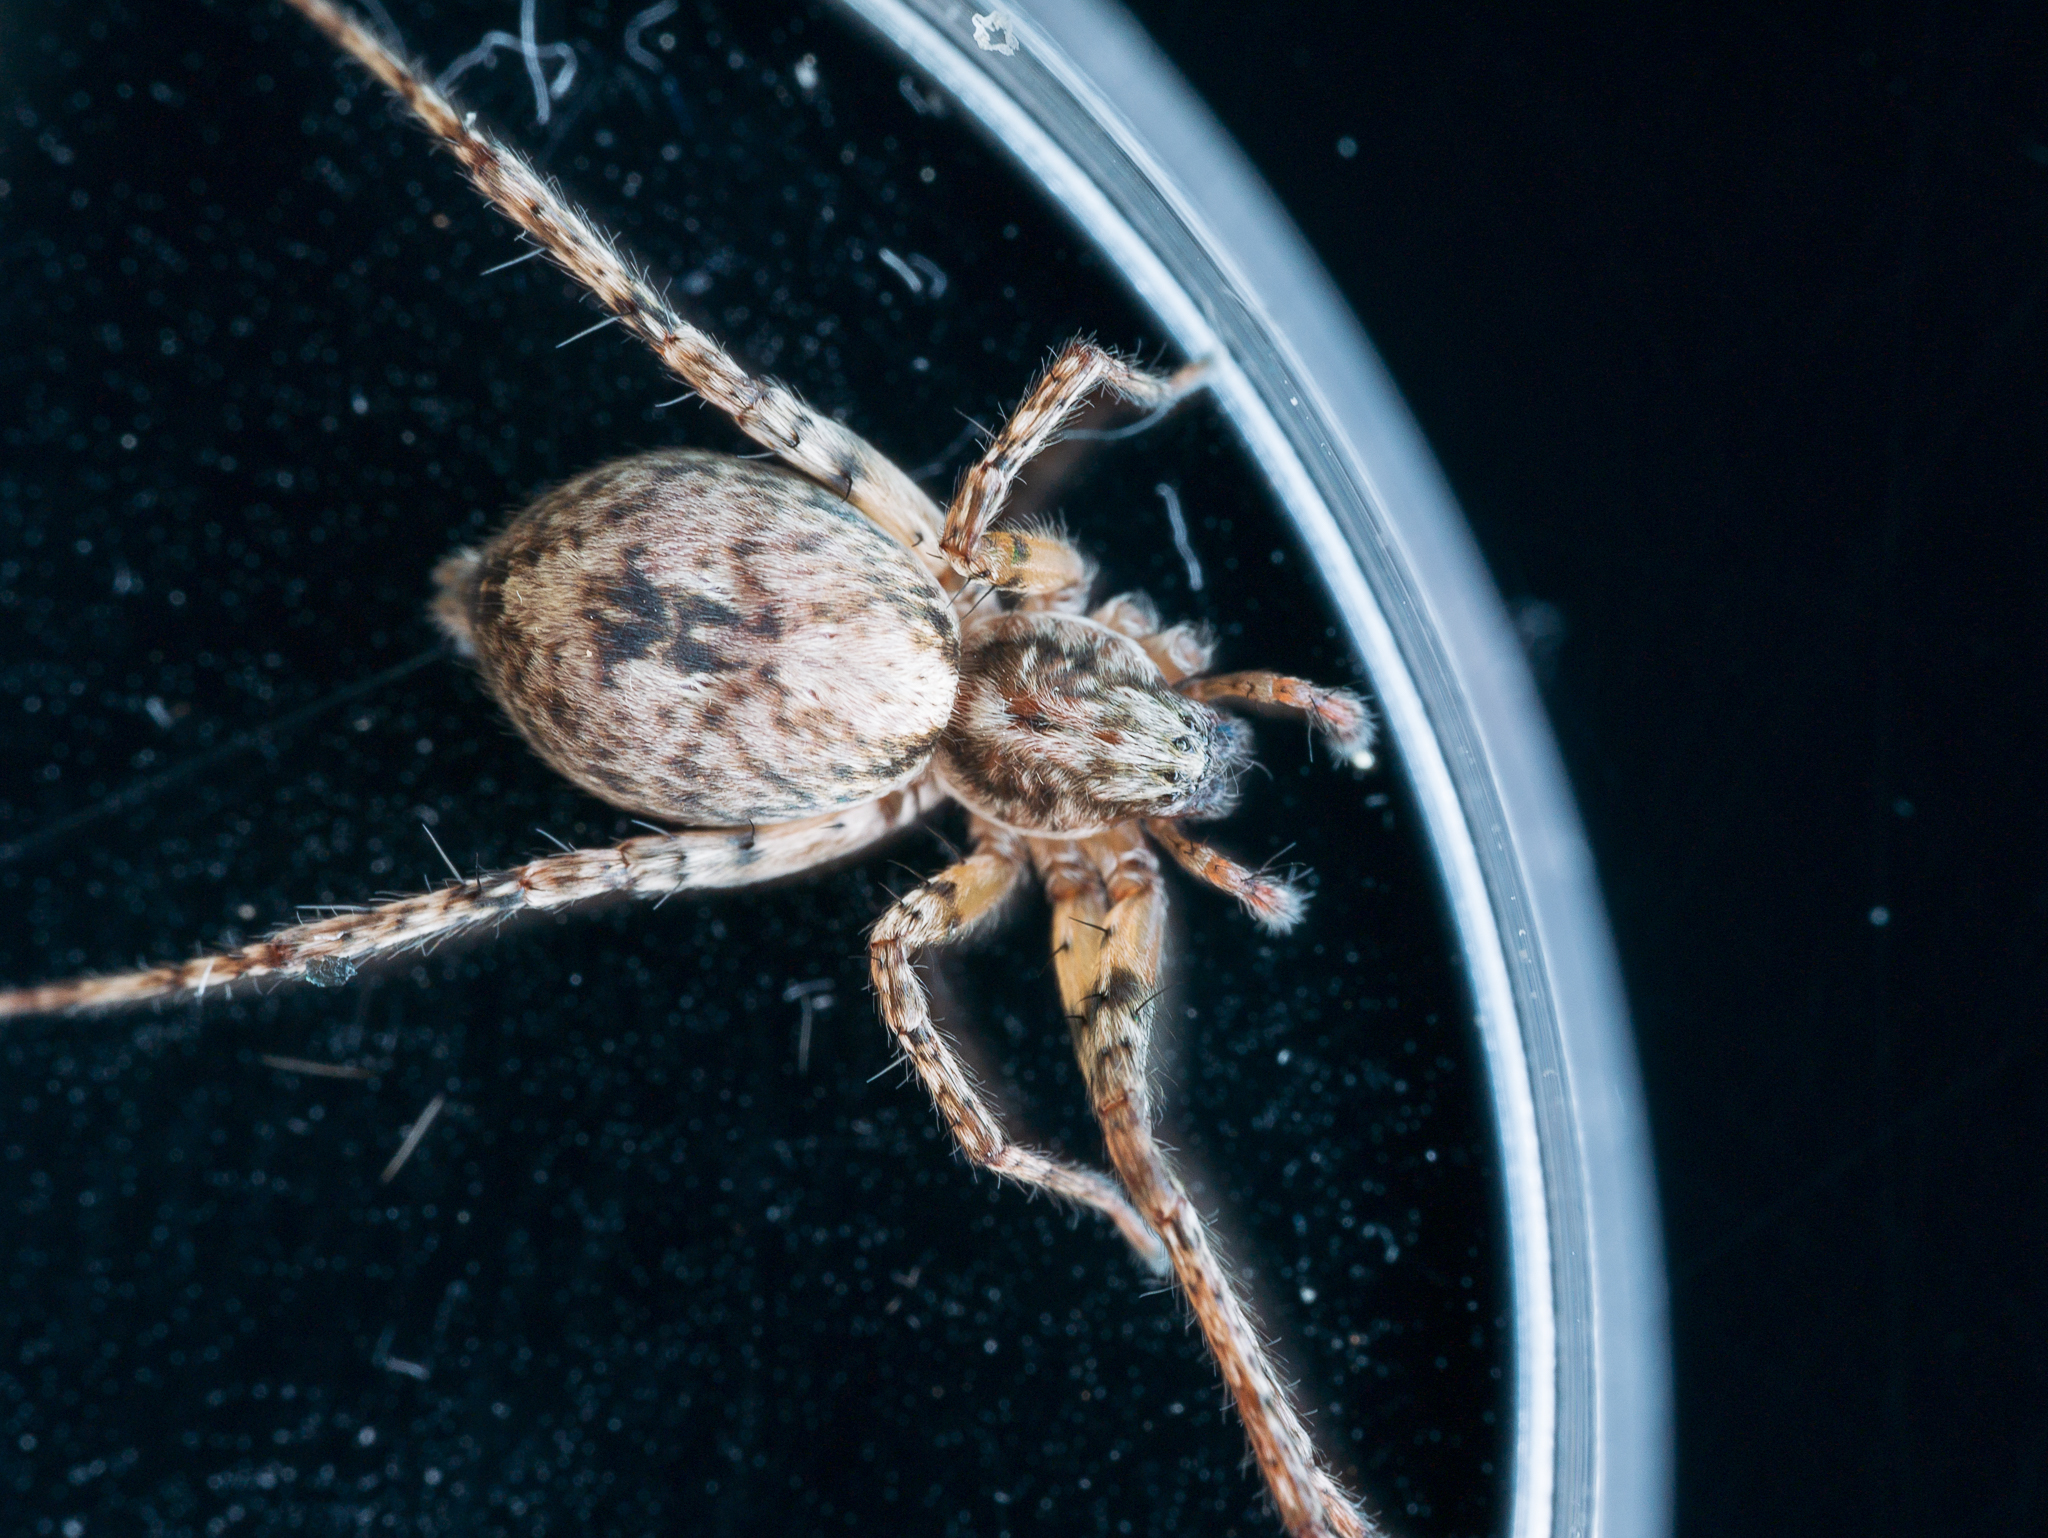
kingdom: Animalia
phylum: Arthropoda
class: Arachnida
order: Araneae
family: Anyphaenidae
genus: Anyphaena
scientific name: Anyphaena accentuata
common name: Buzzing spider
